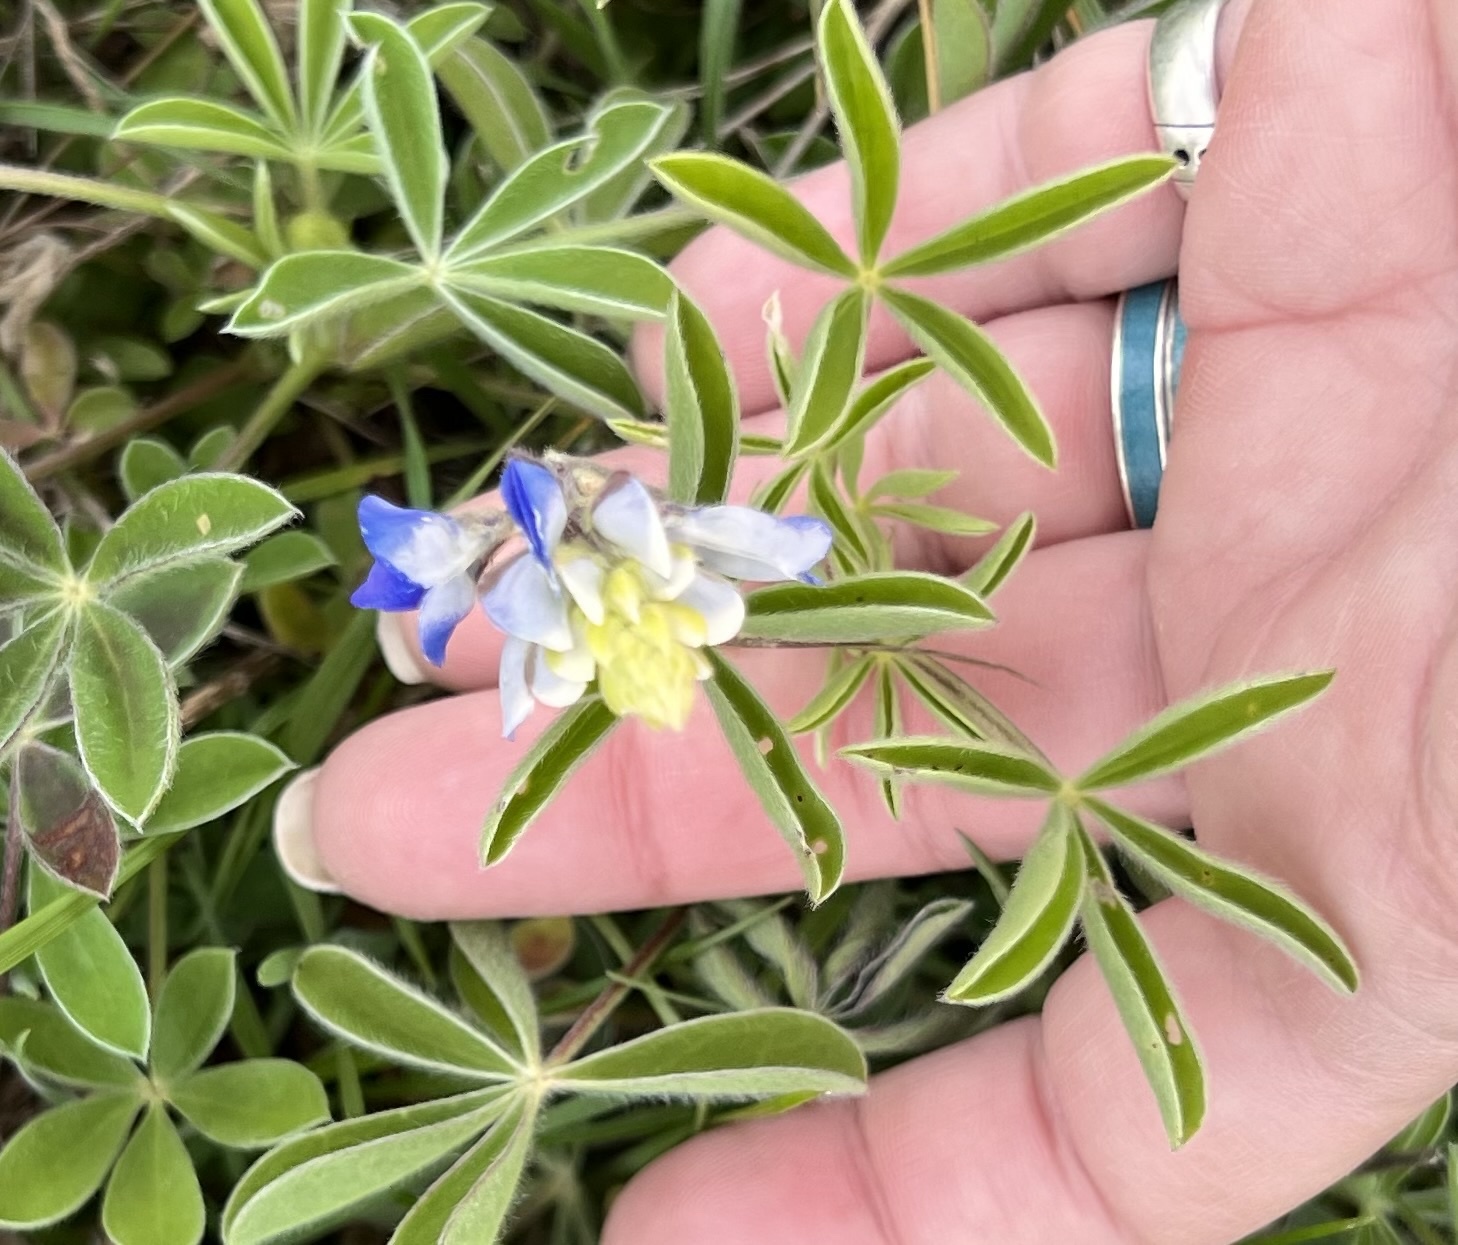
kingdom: Plantae
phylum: Tracheophyta
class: Magnoliopsida
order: Fabales
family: Fabaceae
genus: Lupinus
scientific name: Lupinus texensis
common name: Texas bluebonnet
